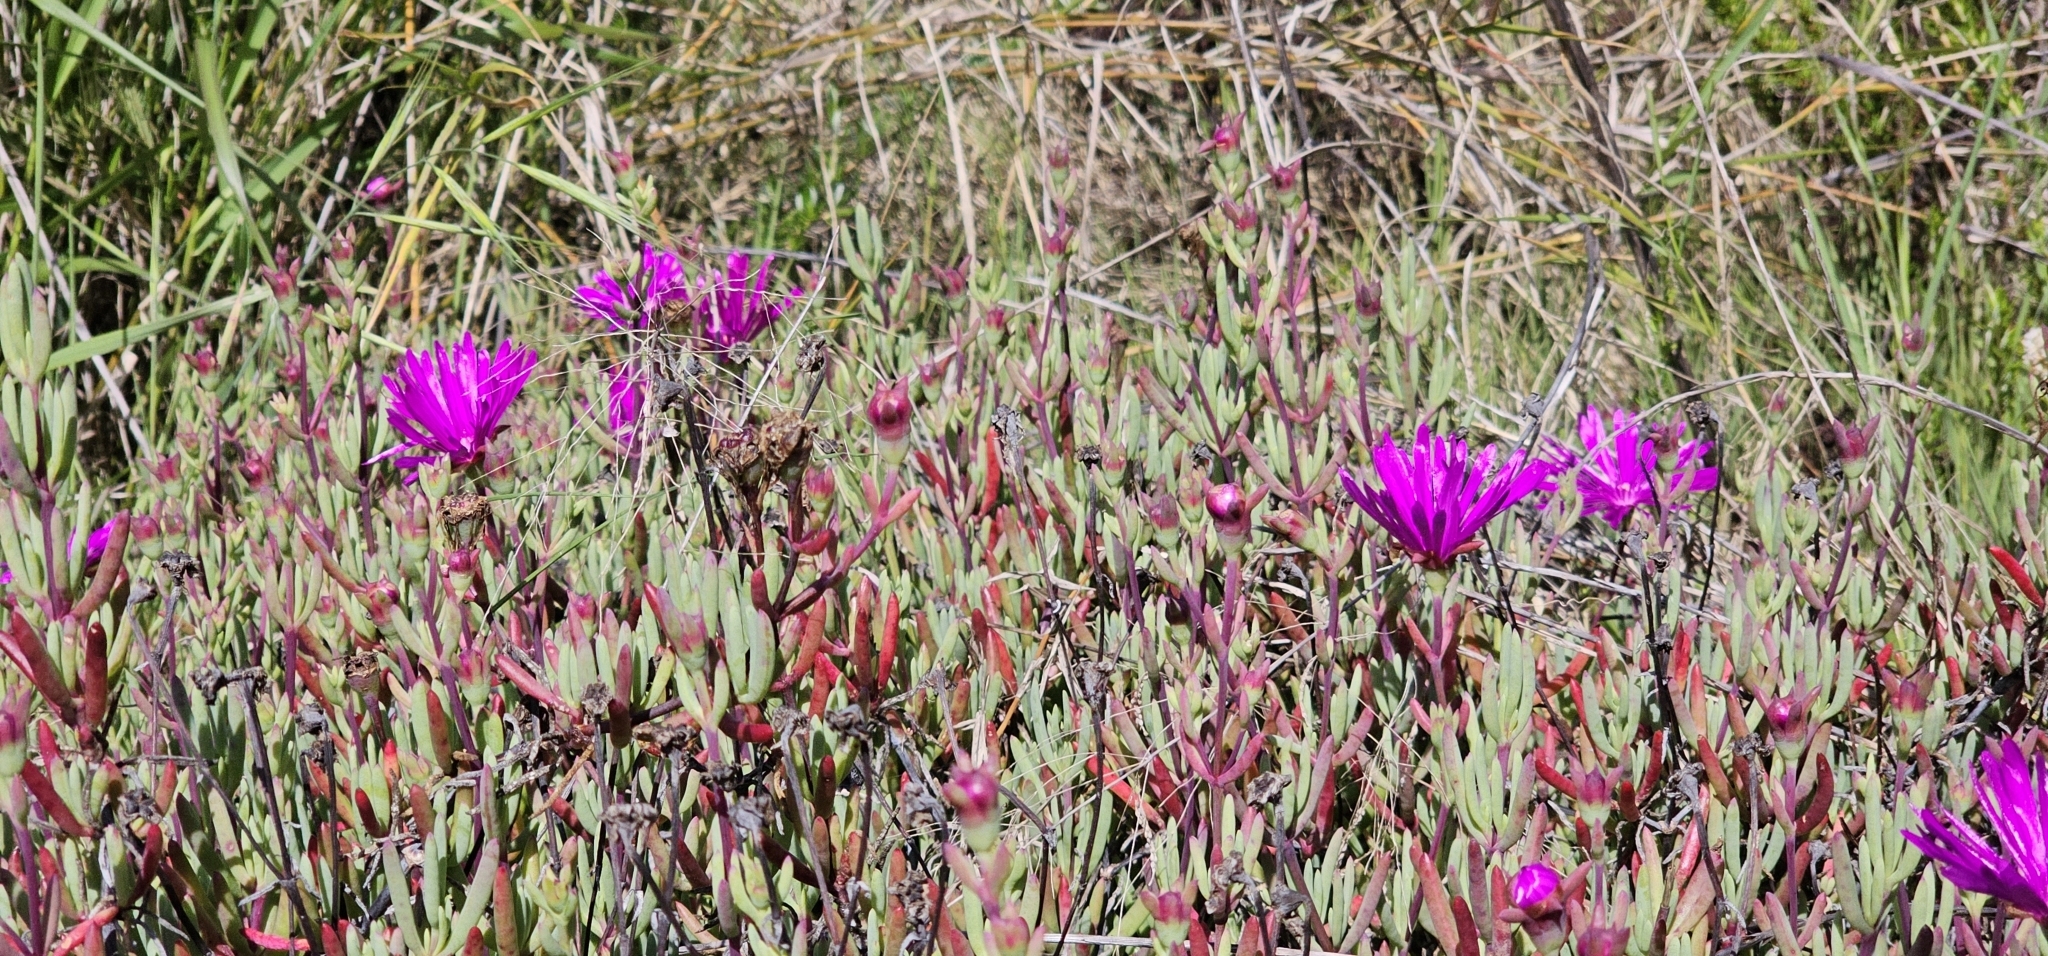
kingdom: Plantae
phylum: Tracheophyta
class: Magnoliopsida
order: Caryophyllales
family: Aizoaceae
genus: Delosperma
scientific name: Delosperma cooperi
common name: Hardy iceplant
